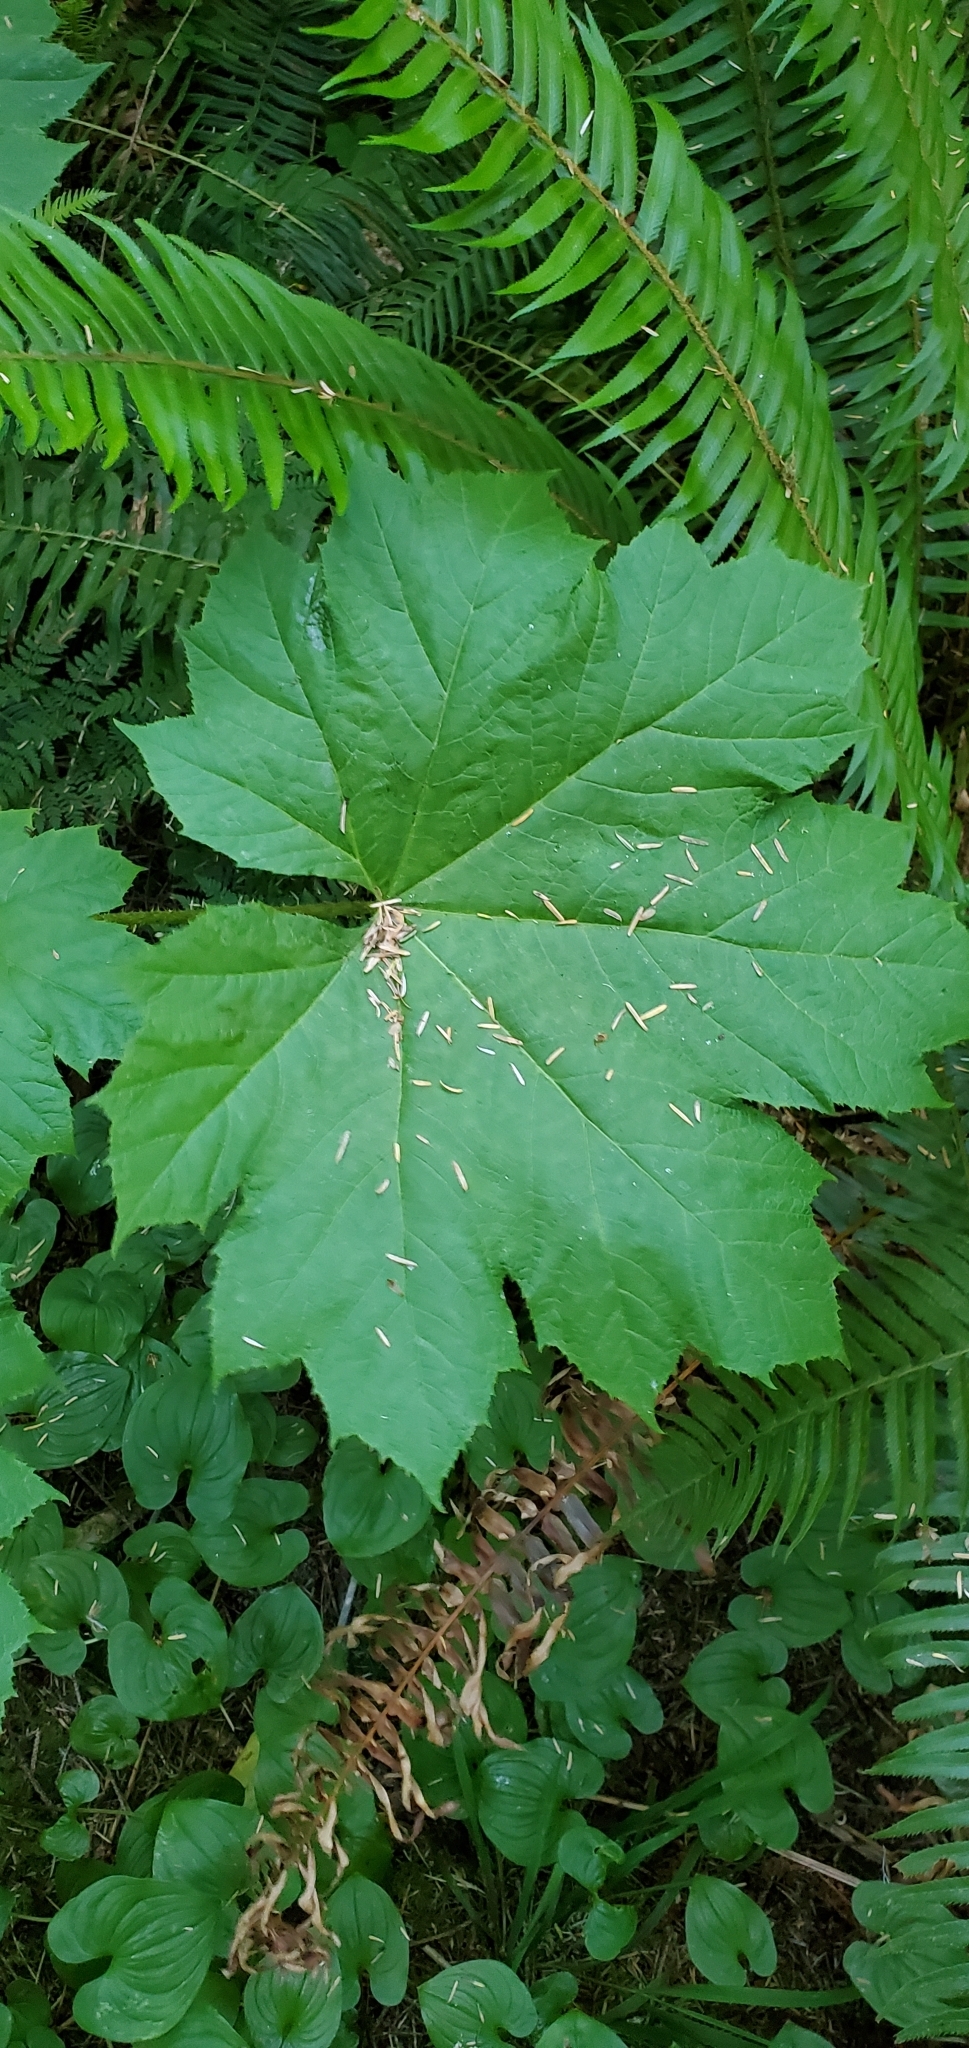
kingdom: Plantae
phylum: Tracheophyta
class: Magnoliopsida
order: Apiales
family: Araliaceae
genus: Oplopanax
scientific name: Oplopanax horridus
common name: Devil's walking-stick
